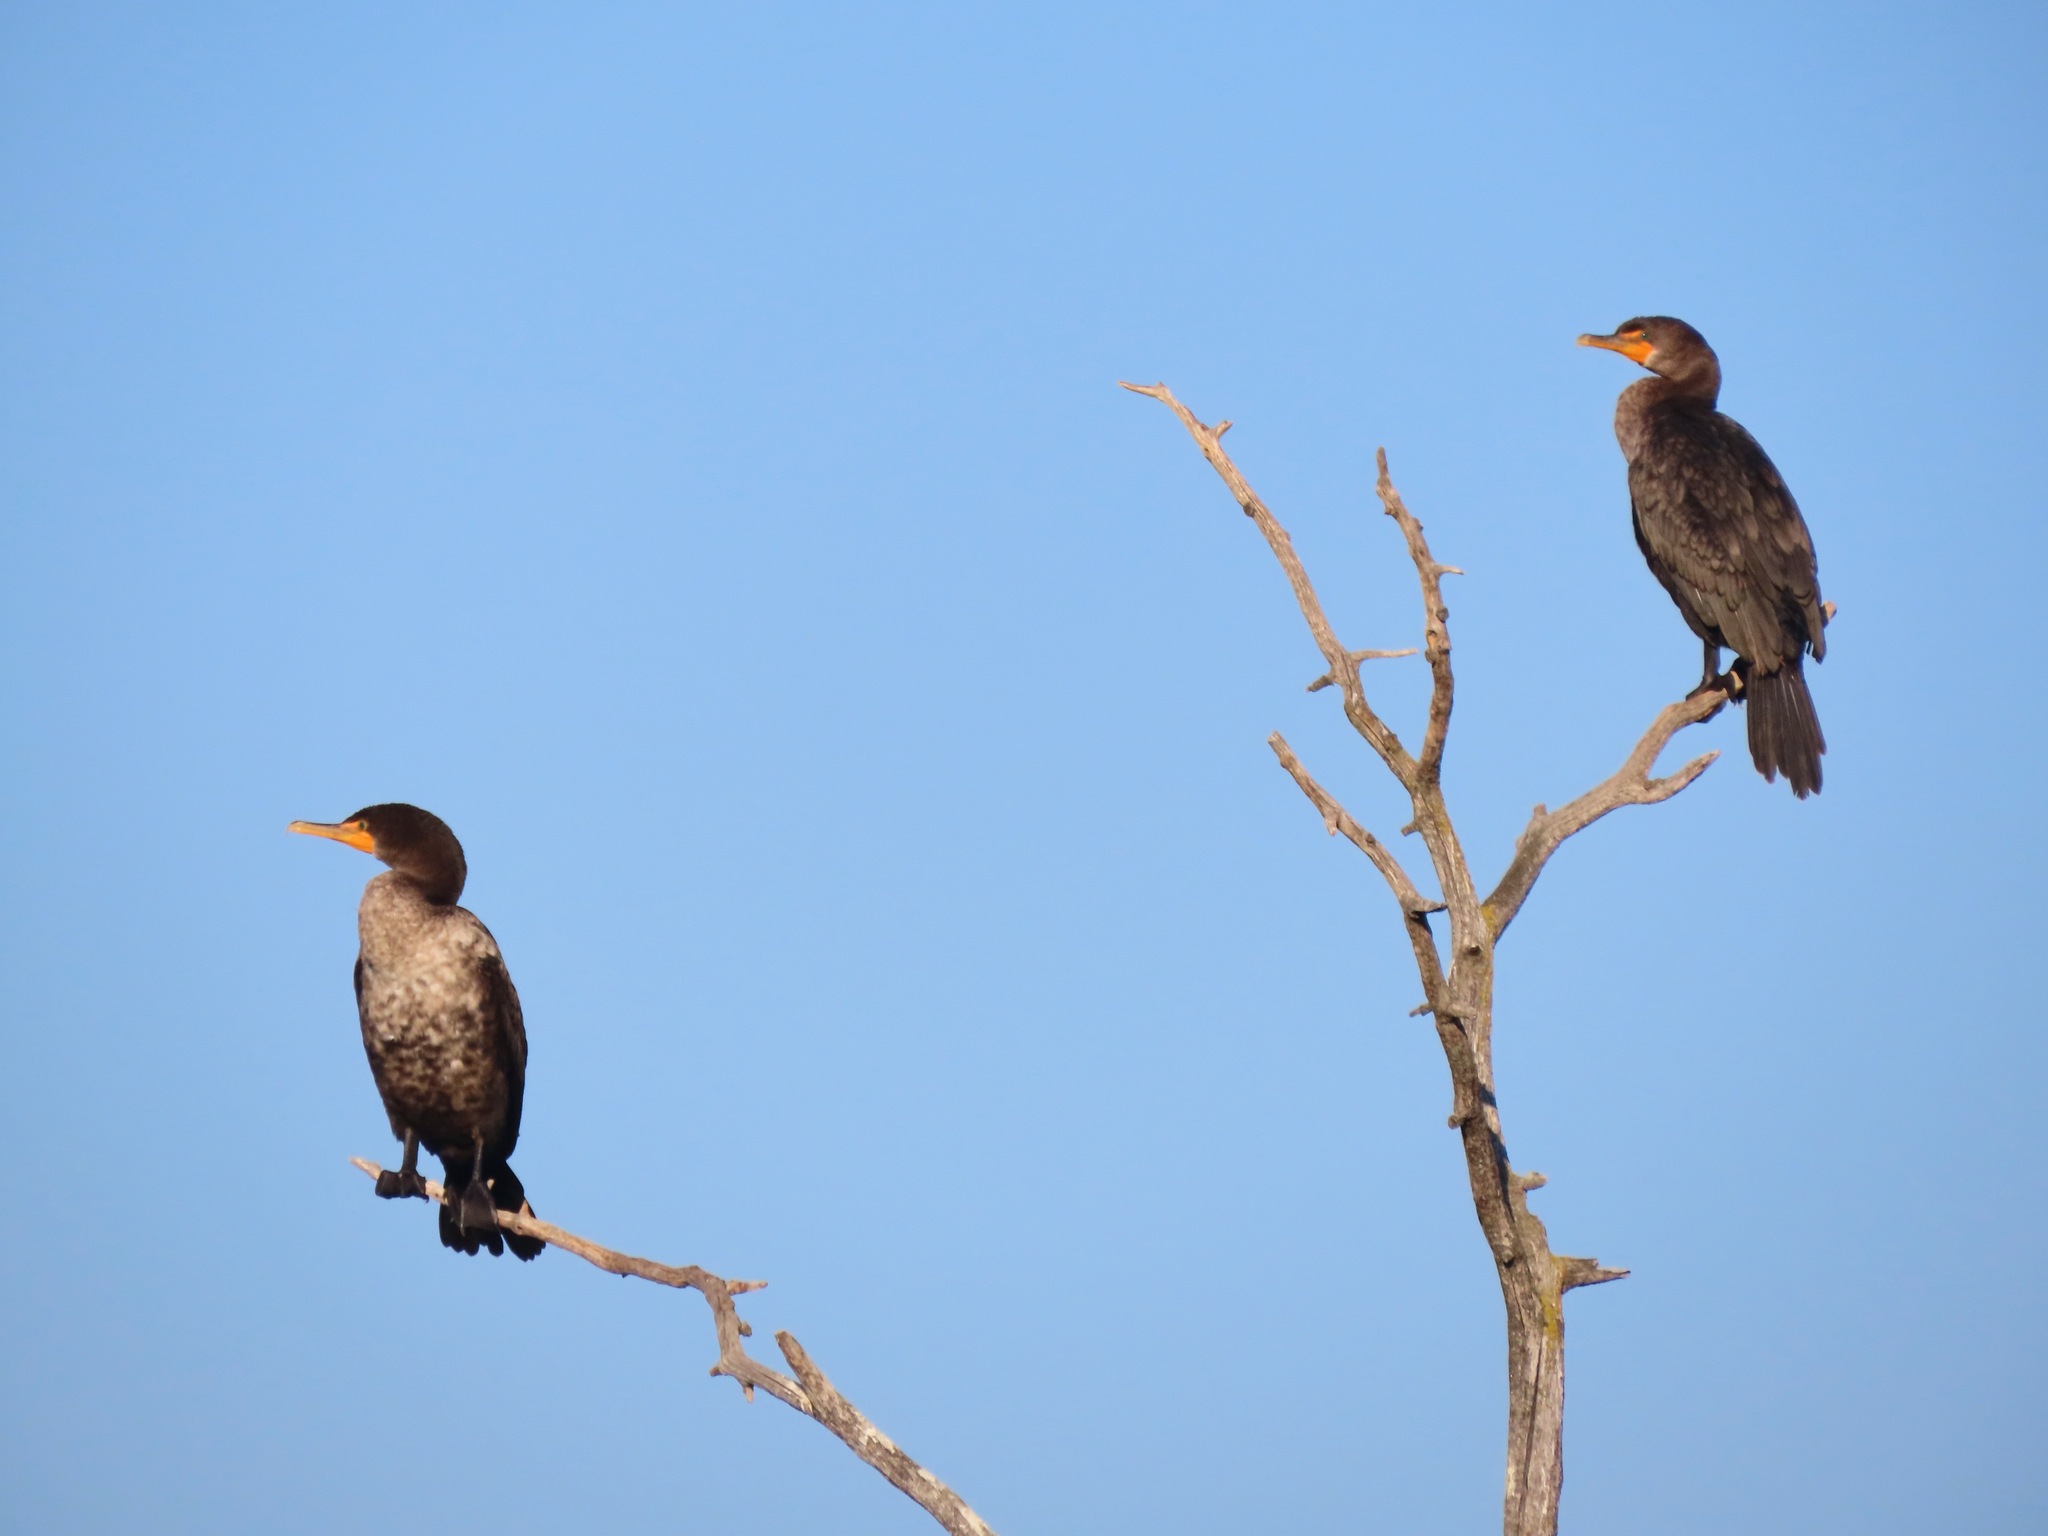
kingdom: Animalia
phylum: Chordata
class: Aves
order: Suliformes
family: Phalacrocoracidae
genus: Phalacrocorax
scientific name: Phalacrocorax auritus
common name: Double-crested cormorant
